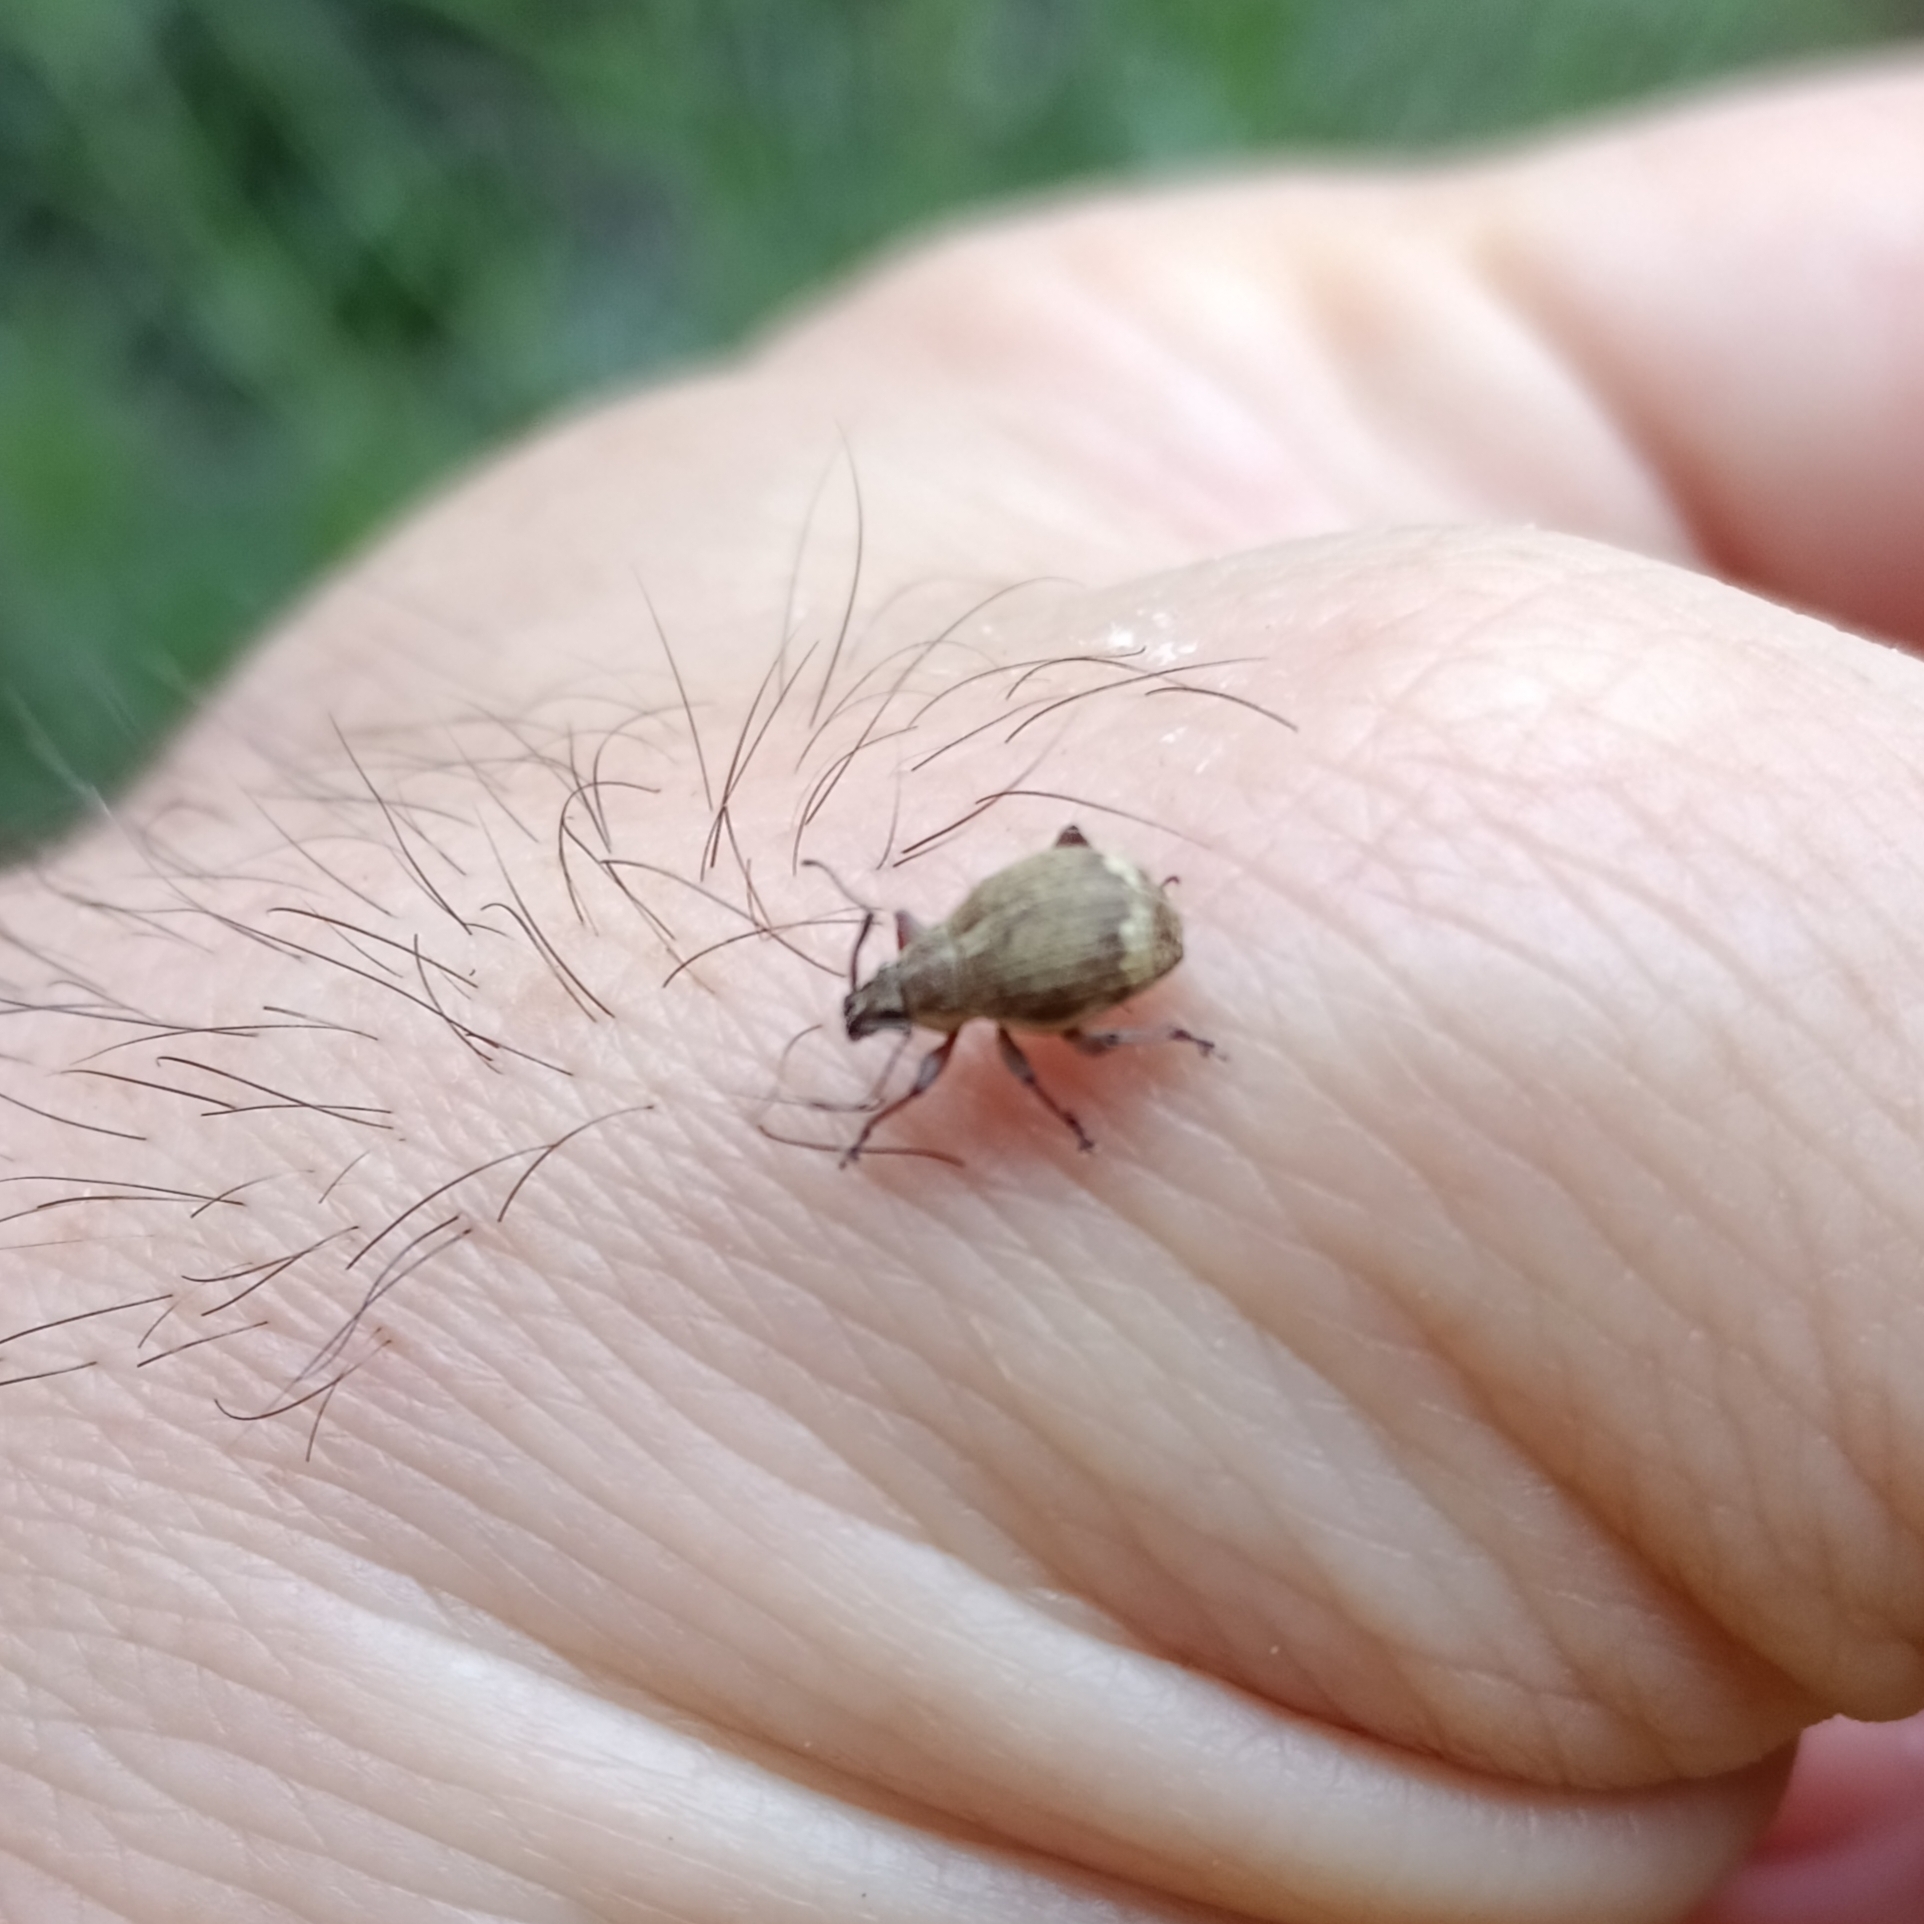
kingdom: Animalia
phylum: Arthropoda
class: Insecta
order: Coleoptera
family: Curculionidae
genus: Sciobius
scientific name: Sciobius pullus
